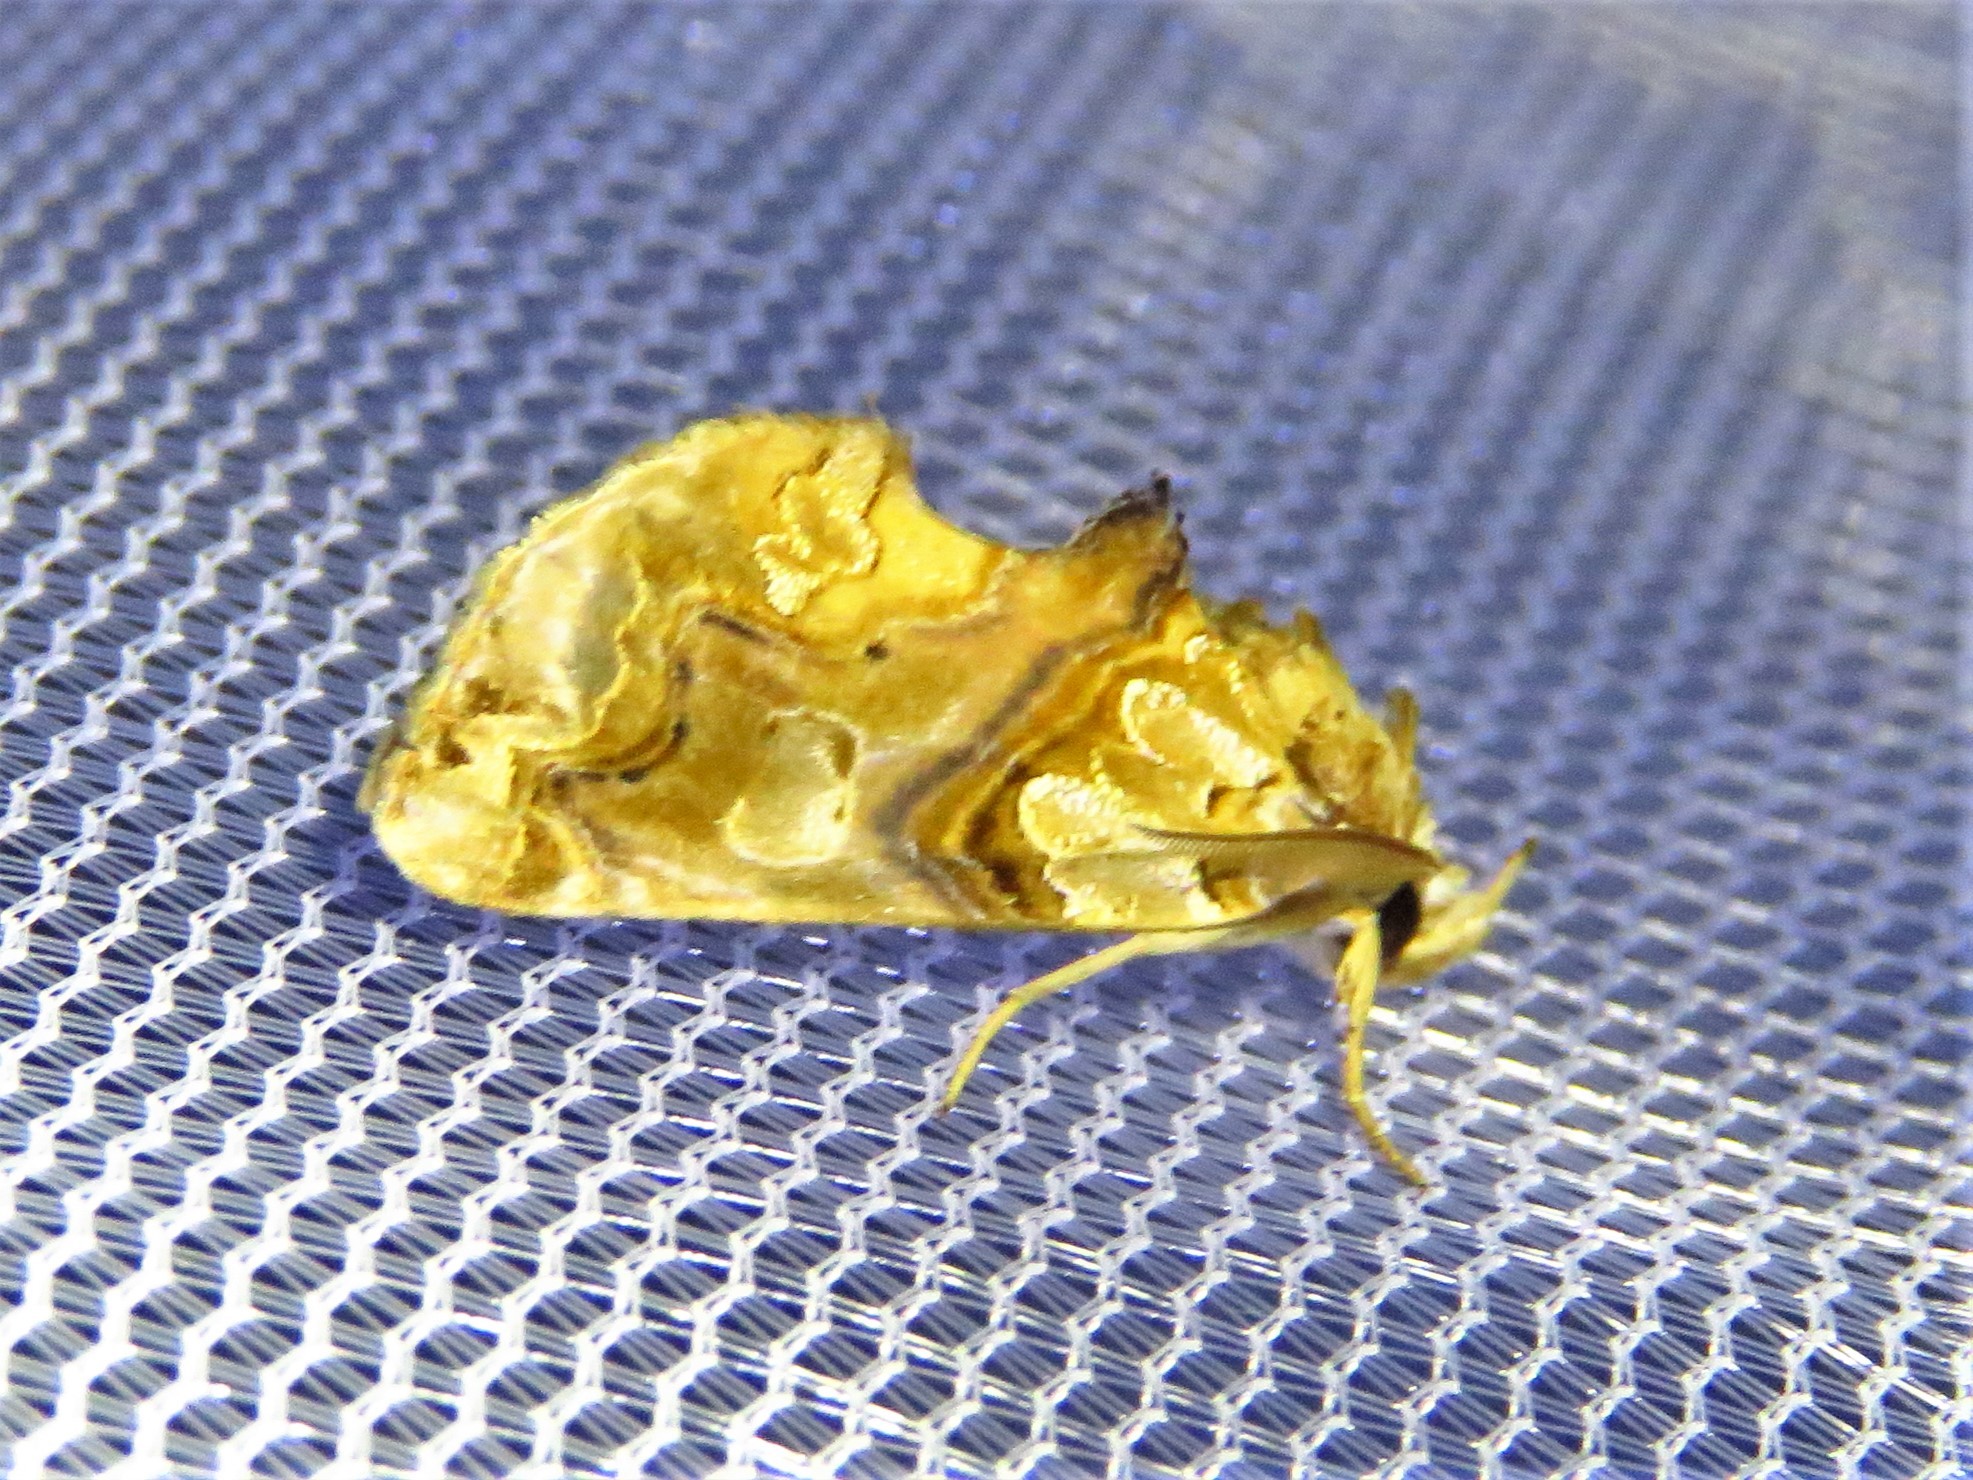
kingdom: Animalia
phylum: Arthropoda
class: Insecta
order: Lepidoptera
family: Erebidae
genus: Plusiodonta
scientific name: Plusiodonta compressipalpis
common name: Moonseed moth
